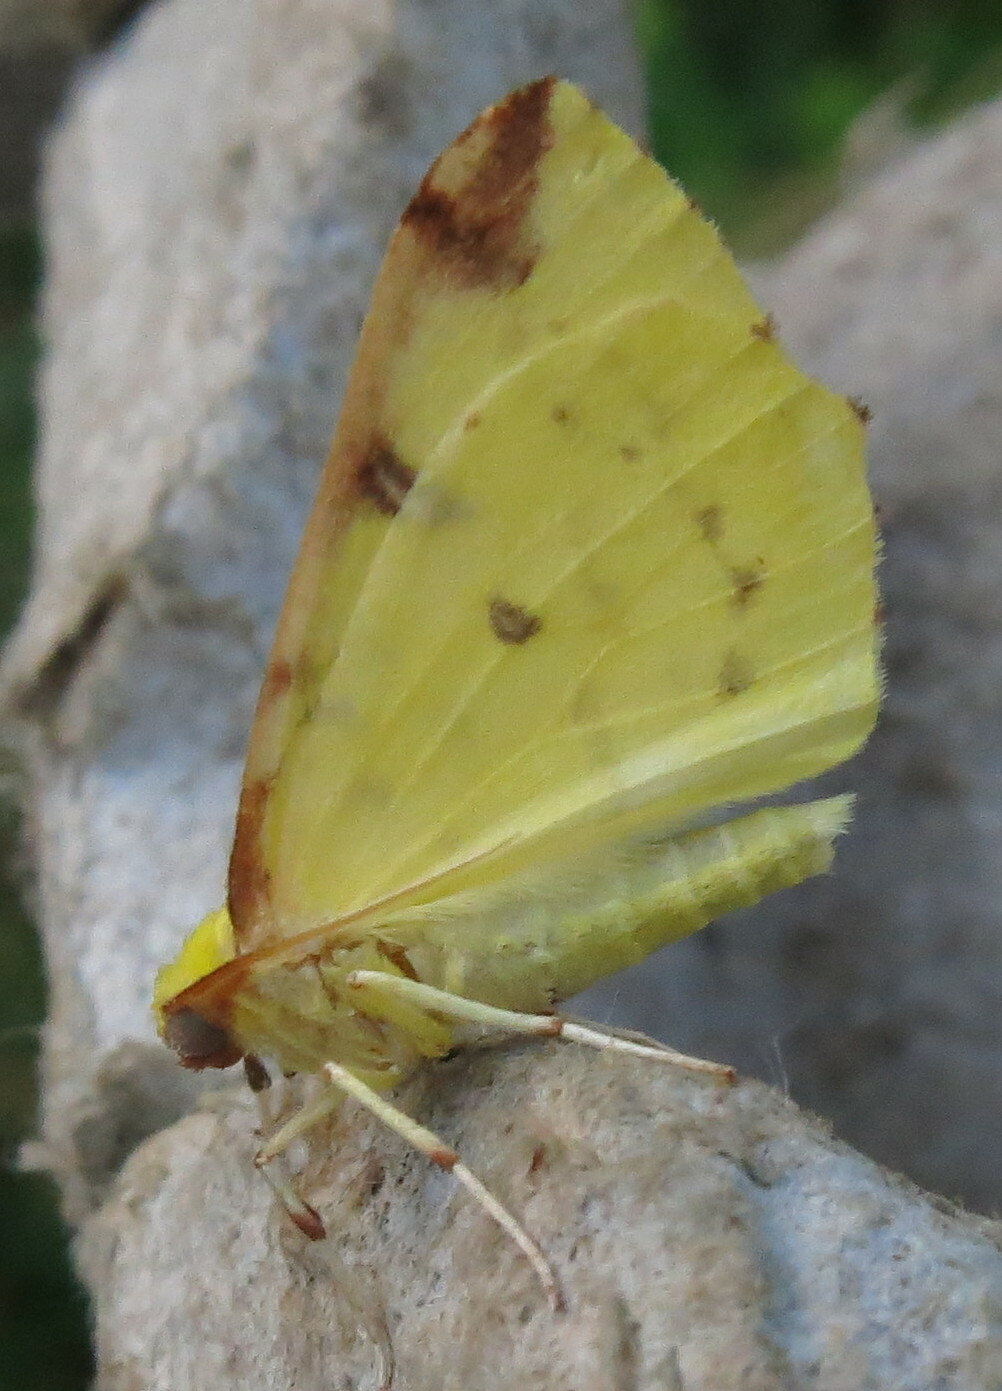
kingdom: Animalia
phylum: Arthropoda
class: Insecta
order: Lepidoptera
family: Geometridae
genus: Opisthograptis
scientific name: Opisthograptis luteolata
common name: Brimstone moth
